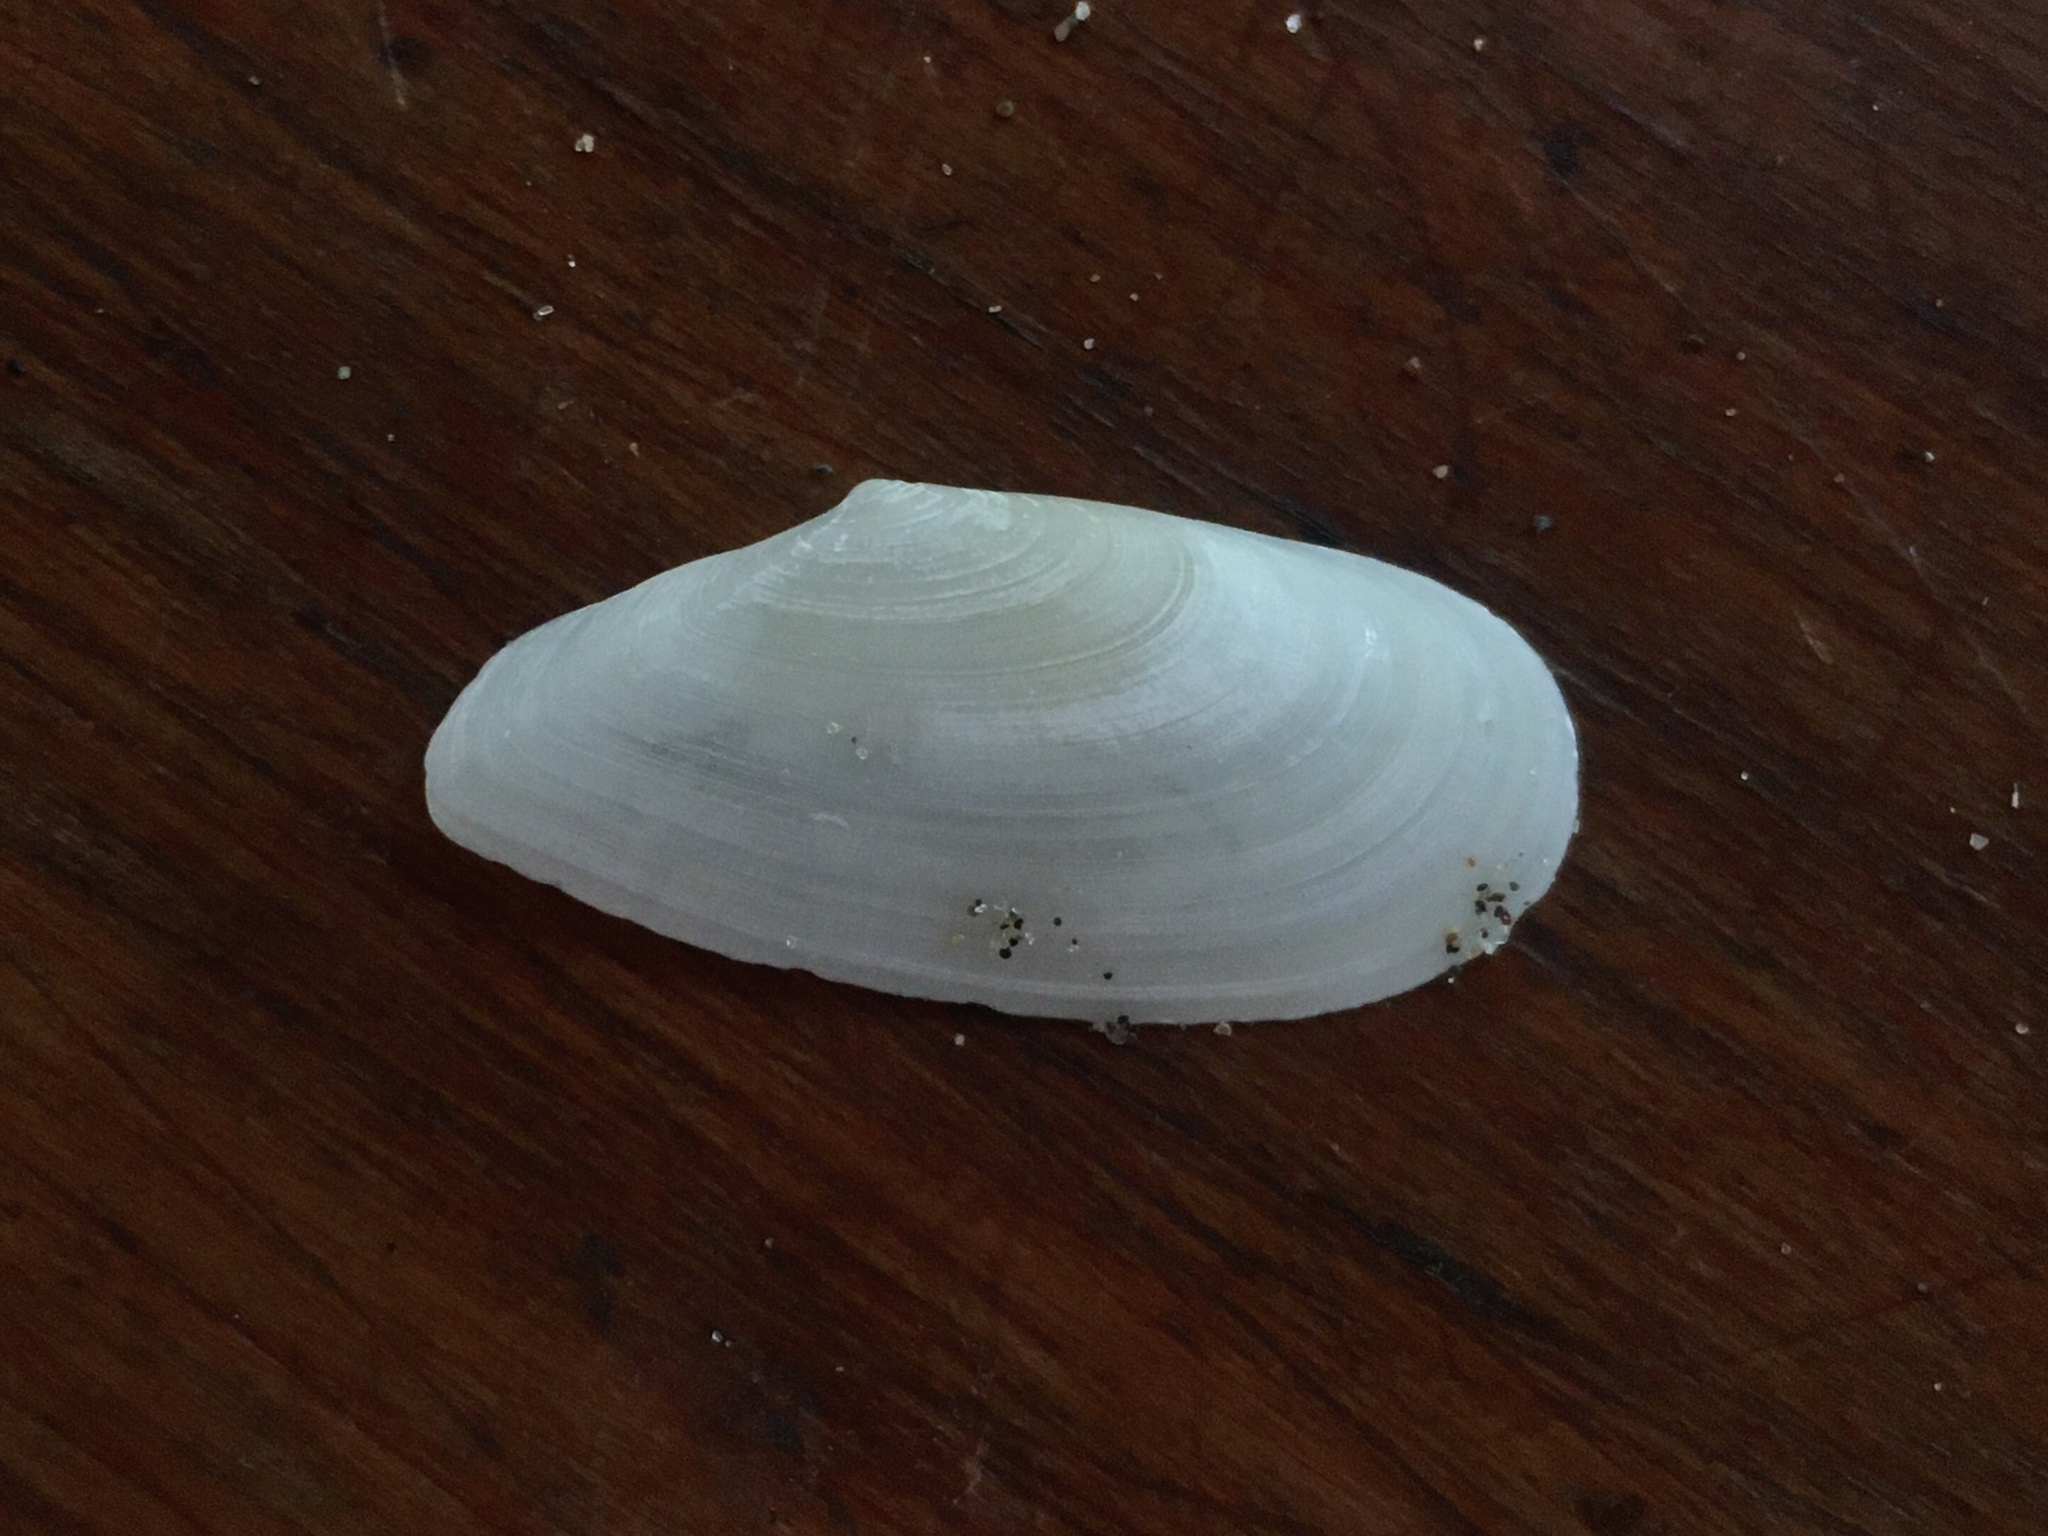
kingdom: Animalia
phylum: Mollusca
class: Bivalvia
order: Cardiida
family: Tellinidae
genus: Tellina
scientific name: Tellina iheringi
